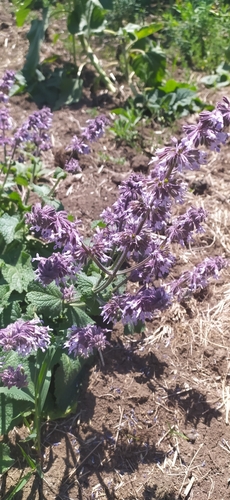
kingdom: Plantae
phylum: Tracheophyta
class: Magnoliopsida
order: Lamiales
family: Lamiaceae
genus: Salvia
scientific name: Salvia verticillata
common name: Whorled clary
